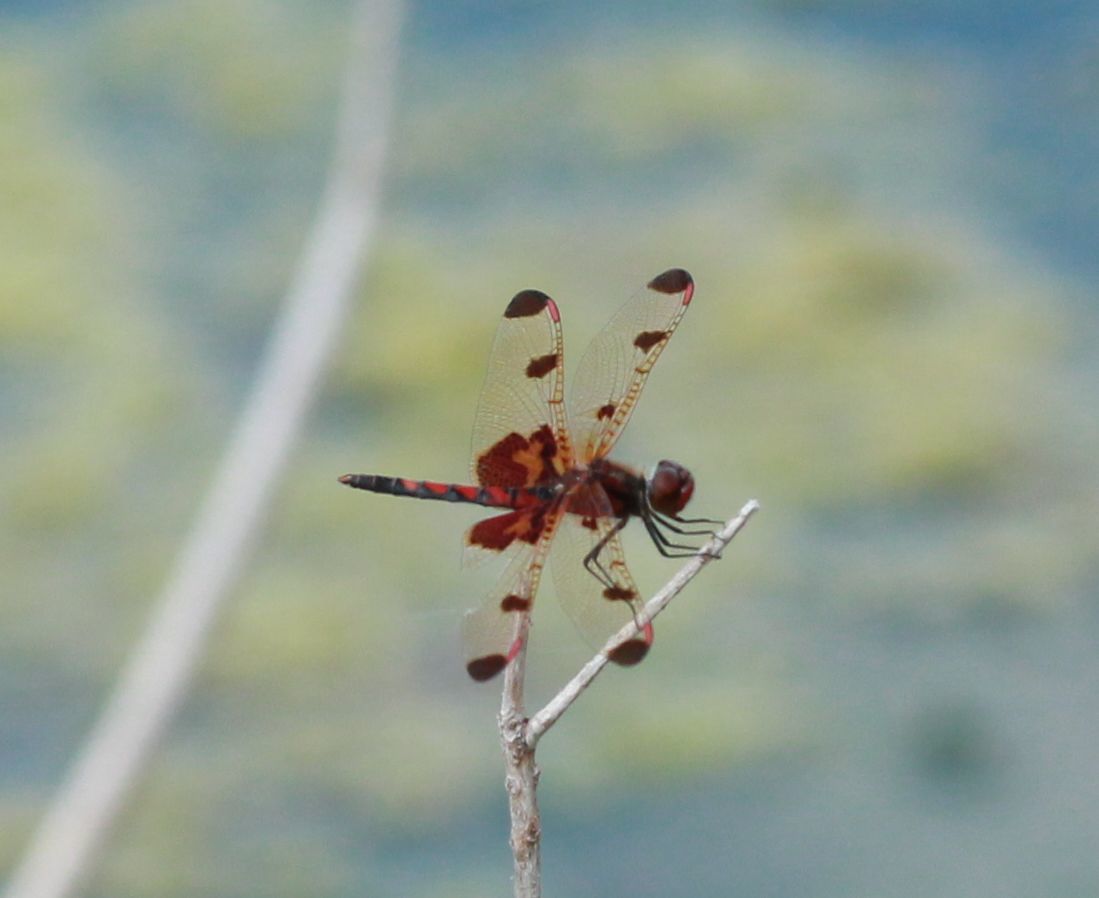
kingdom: Animalia
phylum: Arthropoda
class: Insecta
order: Odonata
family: Libellulidae
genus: Celithemis
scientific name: Celithemis elisa
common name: Calico pennant
